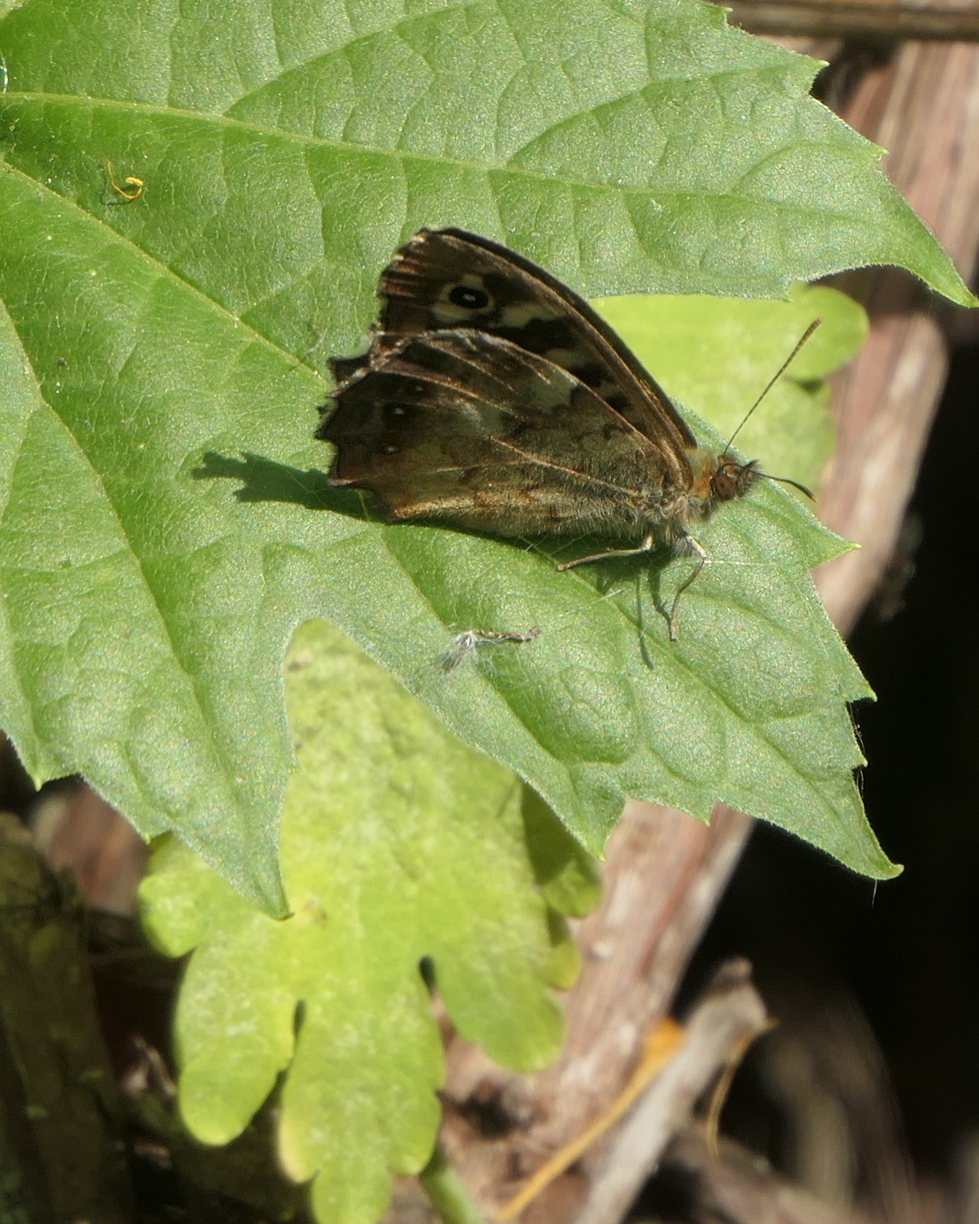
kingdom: Animalia
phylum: Arthropoda
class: Insecta
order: Lepidoptera
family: Nymphalidae
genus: Pararge
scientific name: Pararge aegeria
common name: Speckled wood
